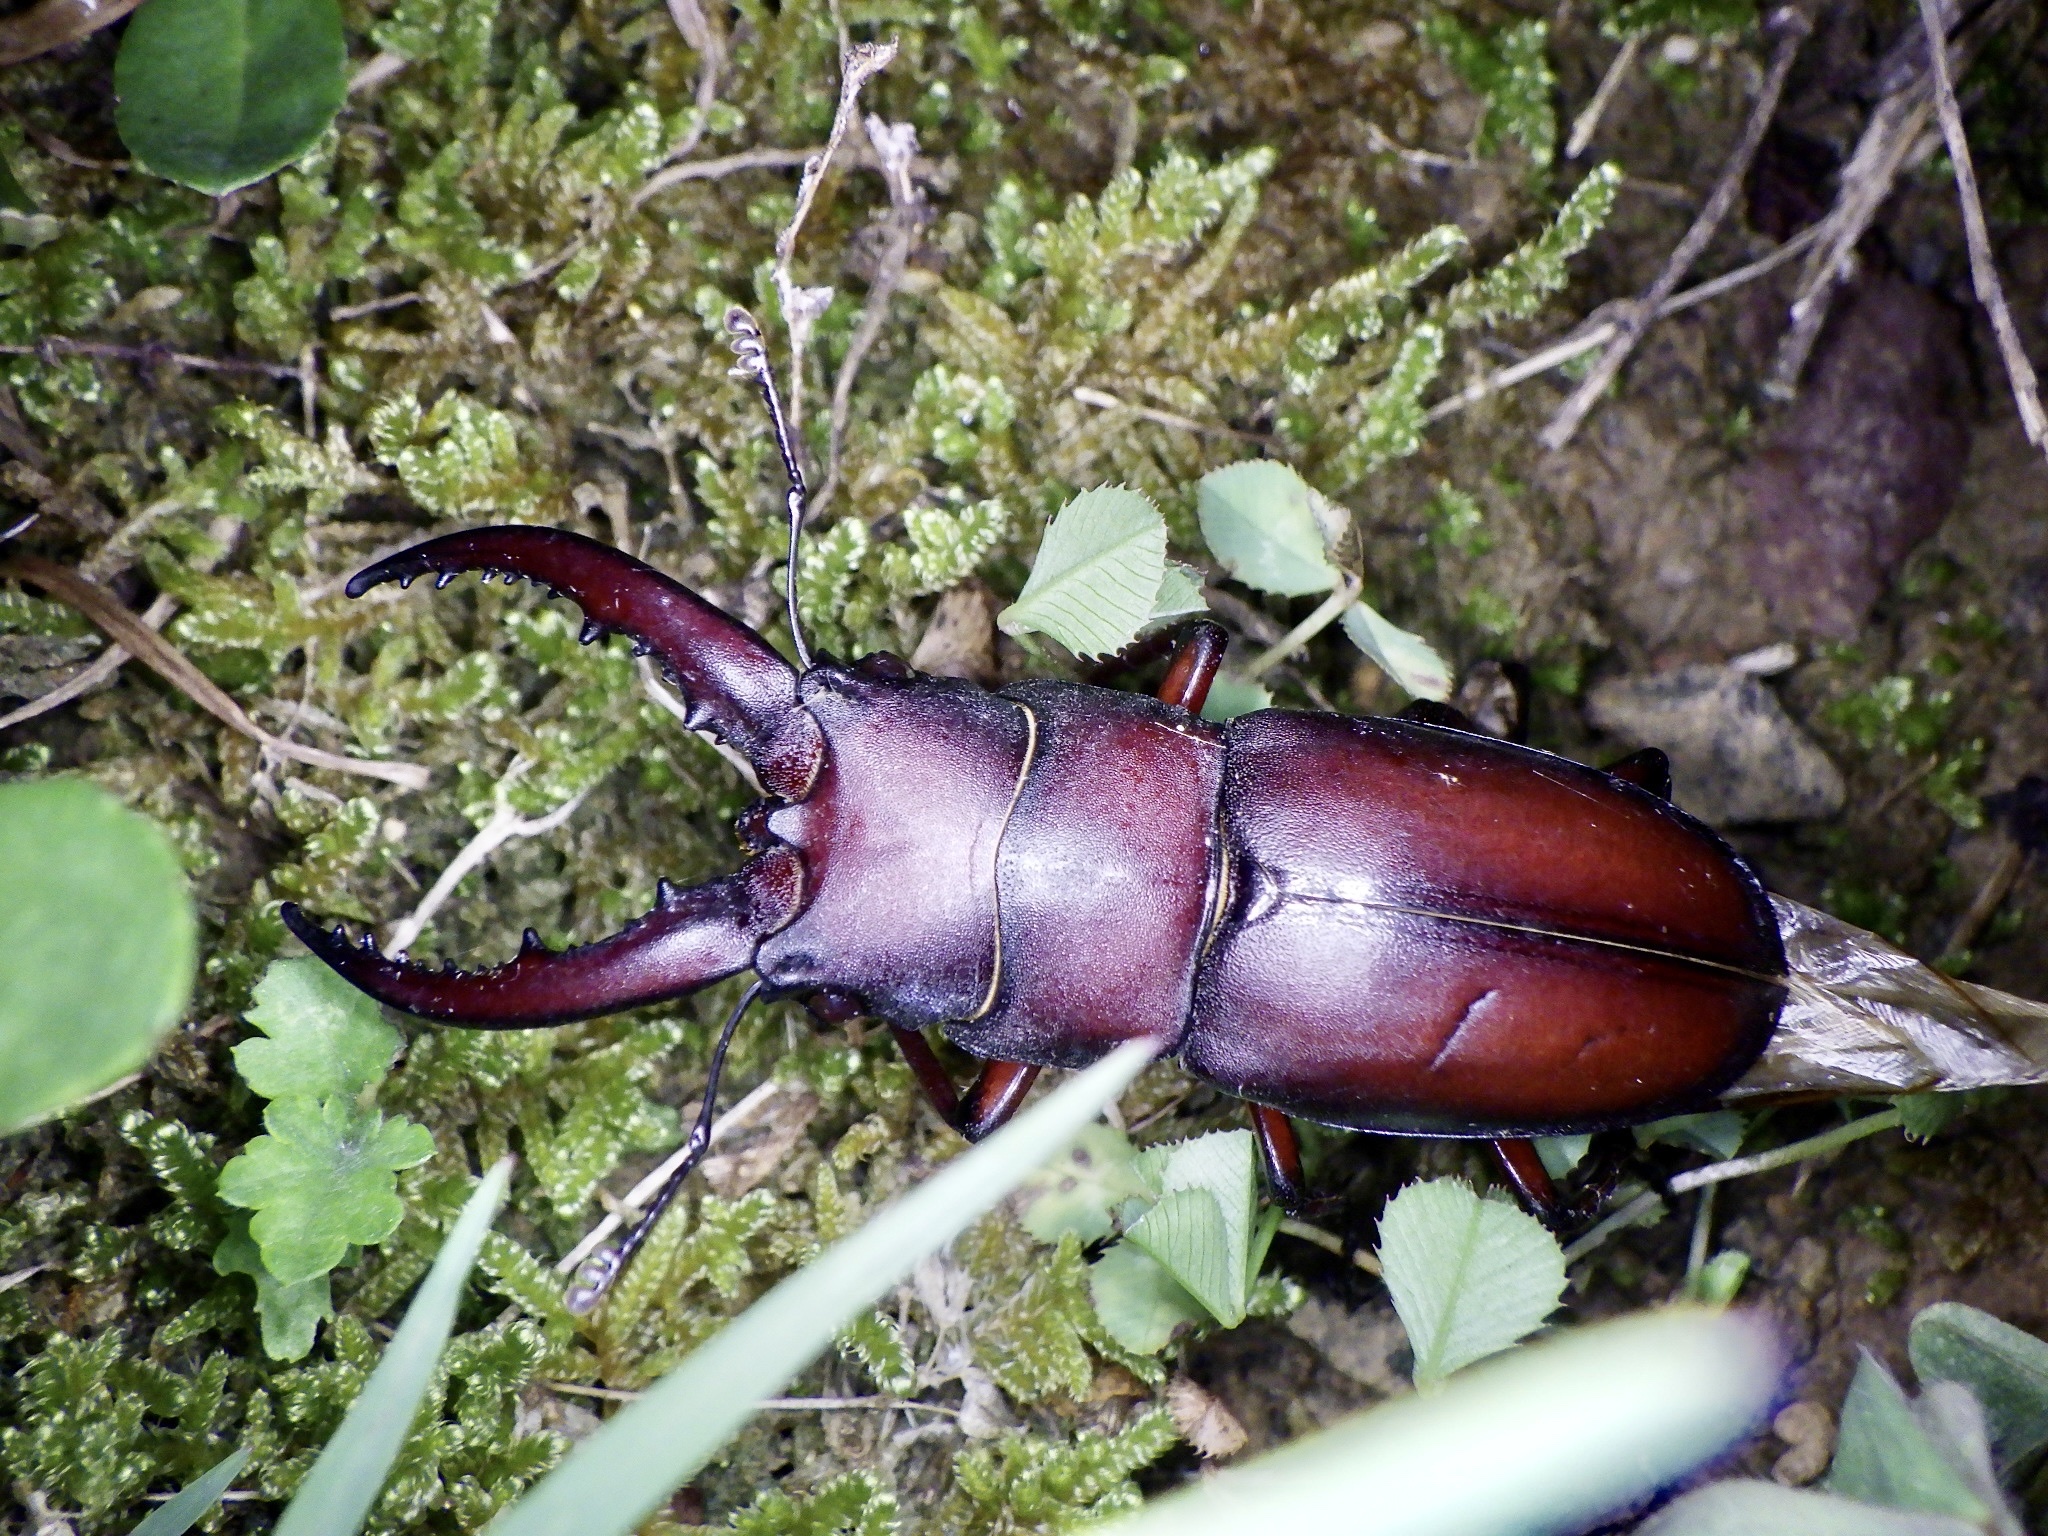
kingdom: Animalia
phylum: Arthropoda
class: Insecta
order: Coleoptera
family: Lucanidae
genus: Prosopocoilus
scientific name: Prosopocoilus inclinatus
